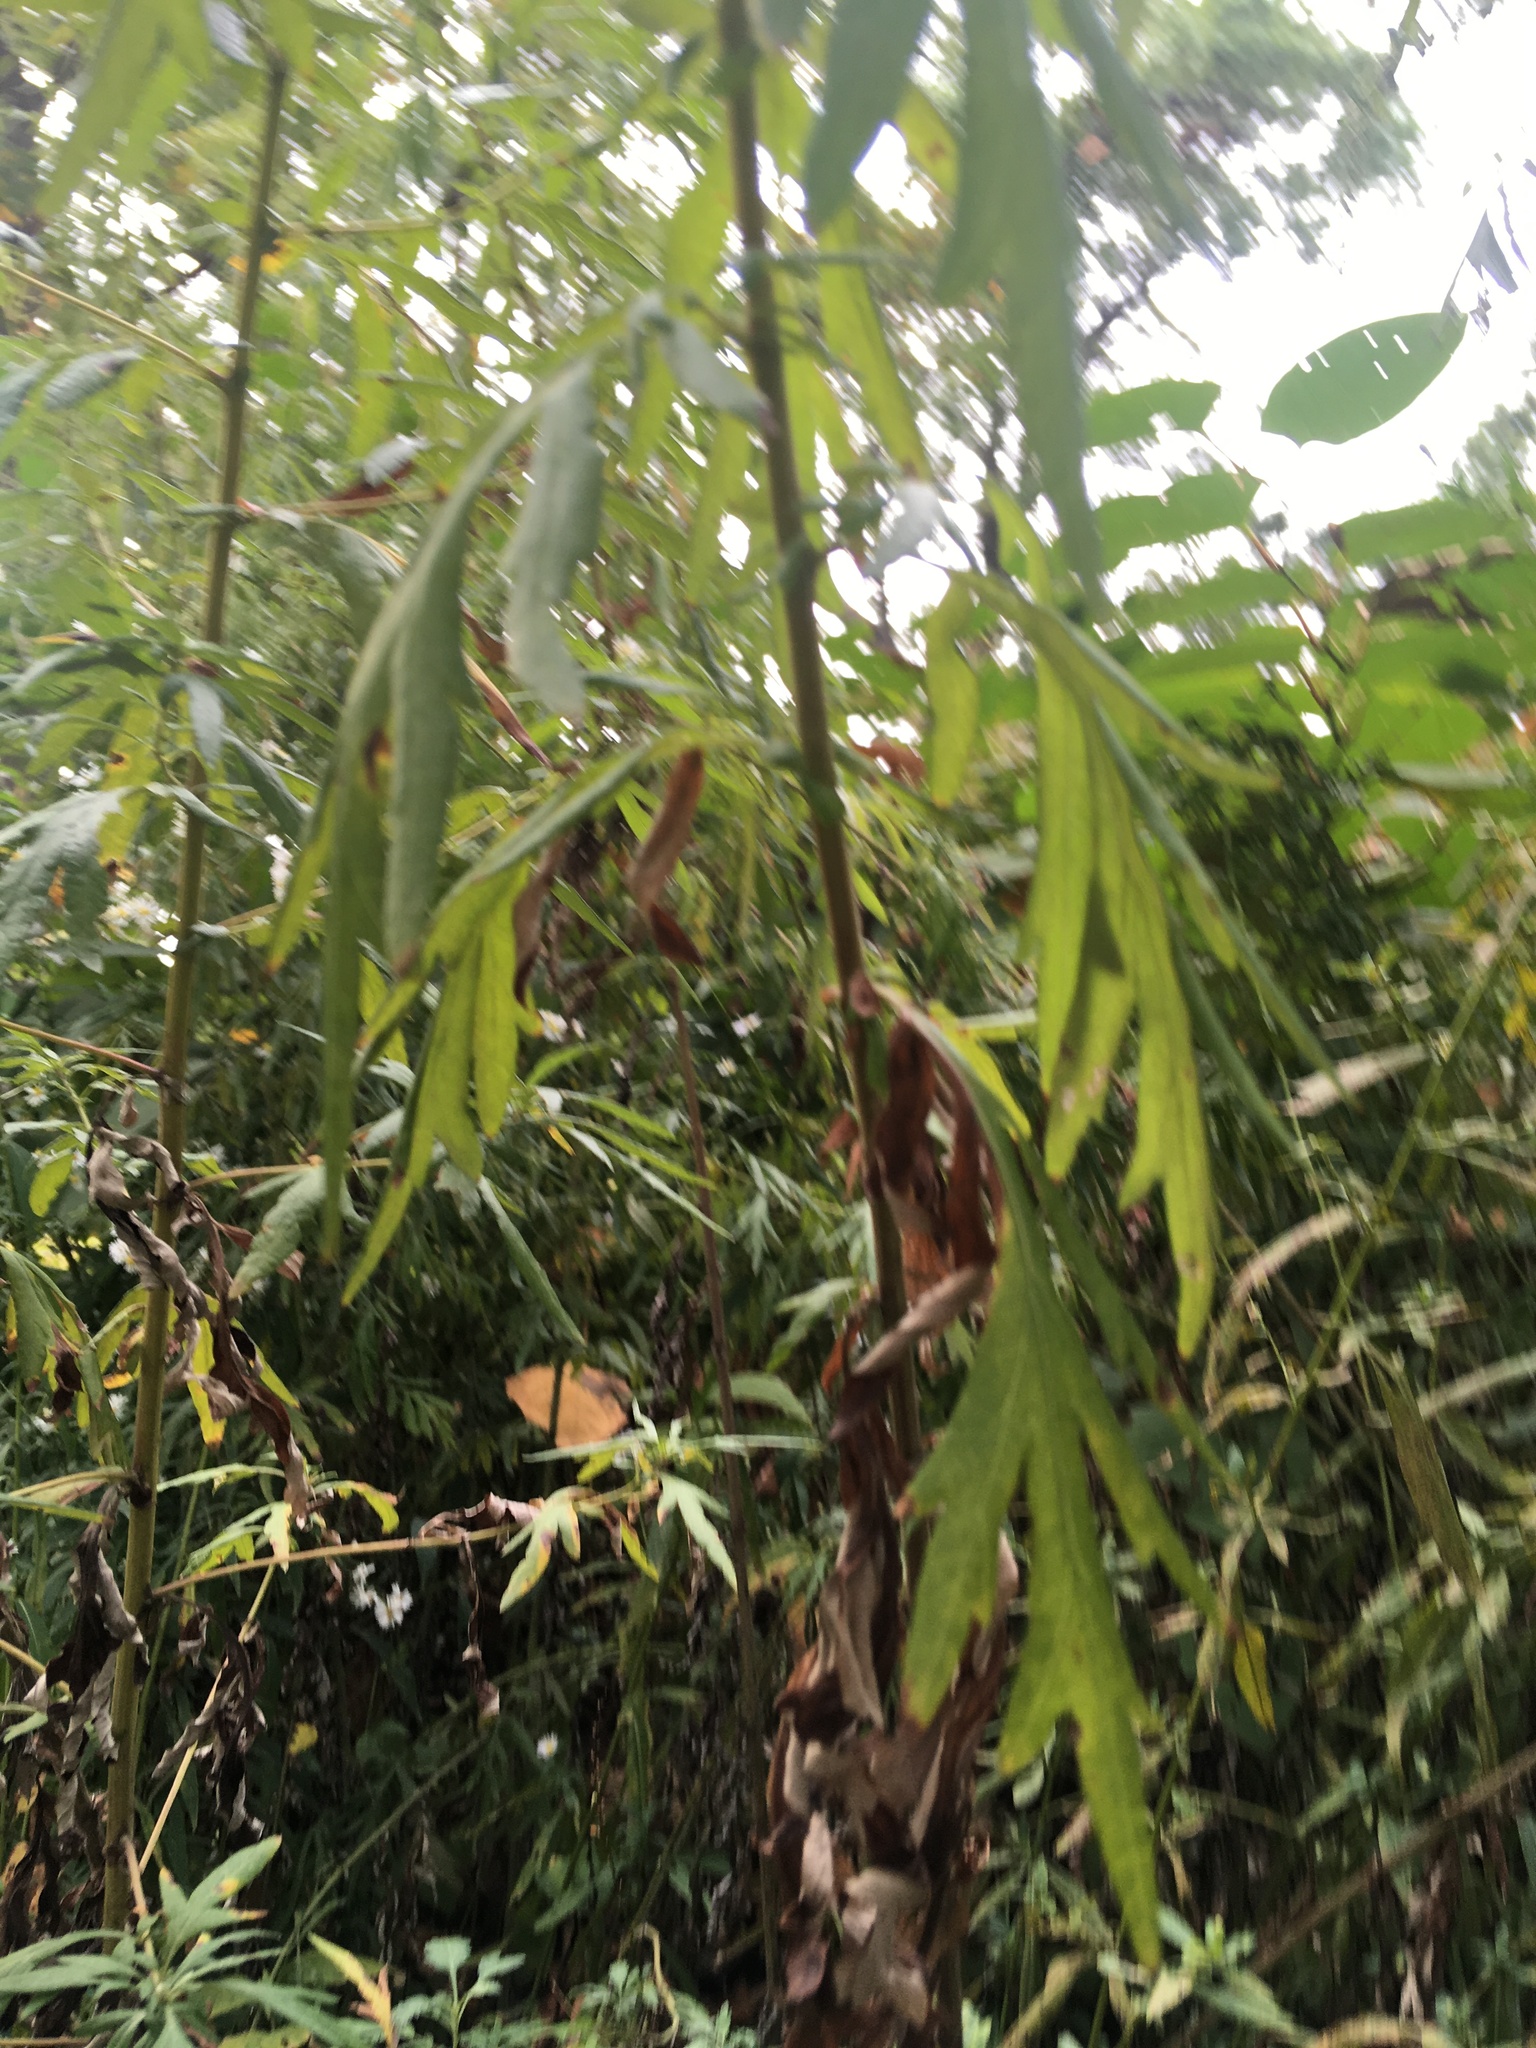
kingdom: Plantae
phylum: Tracheophyta
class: Magnoliopsida
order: Asterales
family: Asteraceae
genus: Artemisia
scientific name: Artemisia vulgaris
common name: Mugwort
